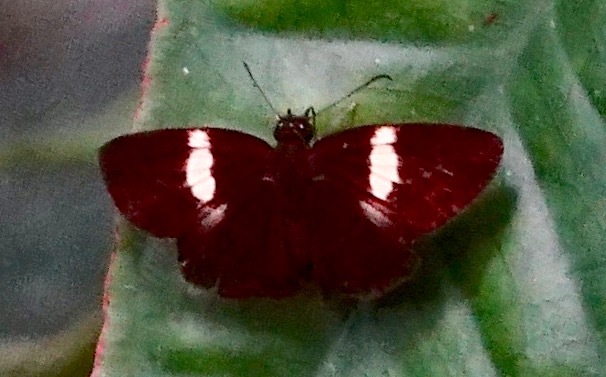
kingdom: Animalia
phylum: Arthropoda
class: Insecta
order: Lepidoptera
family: Hesperiidae
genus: Potamanaxas
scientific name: Potamanaxas flavofasciata
